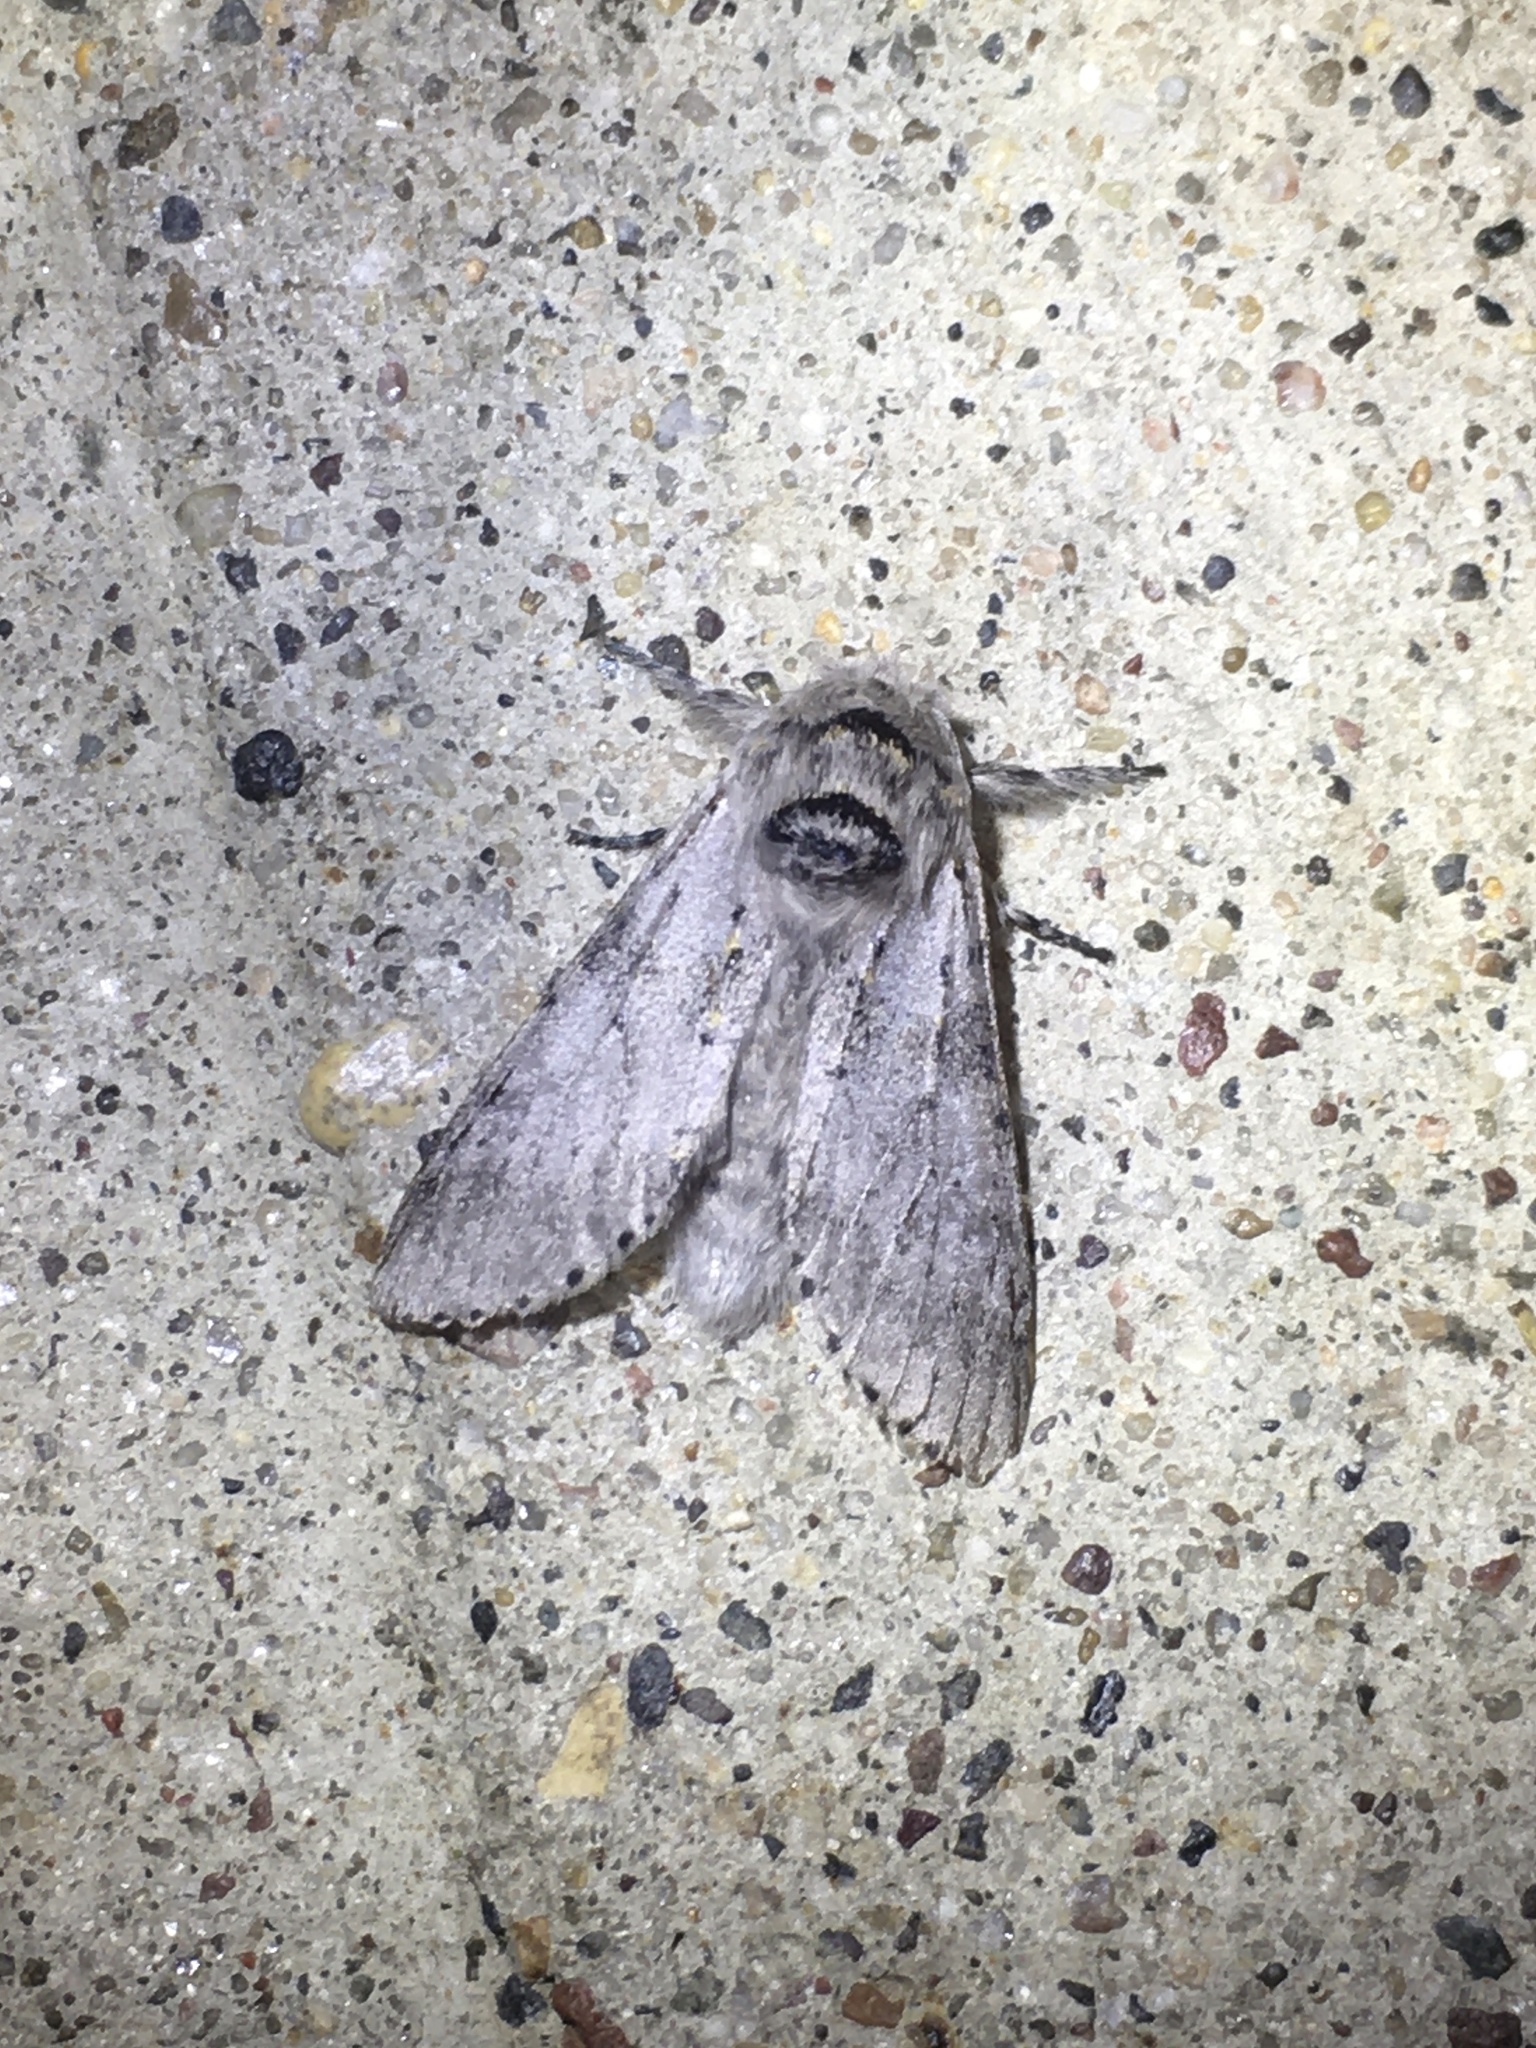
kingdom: Animalia
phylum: Arthropoda
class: Insecta
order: Lepidoptera
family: Notodontidae
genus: Furcula
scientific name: Furcula cinerea
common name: Gray furcula
